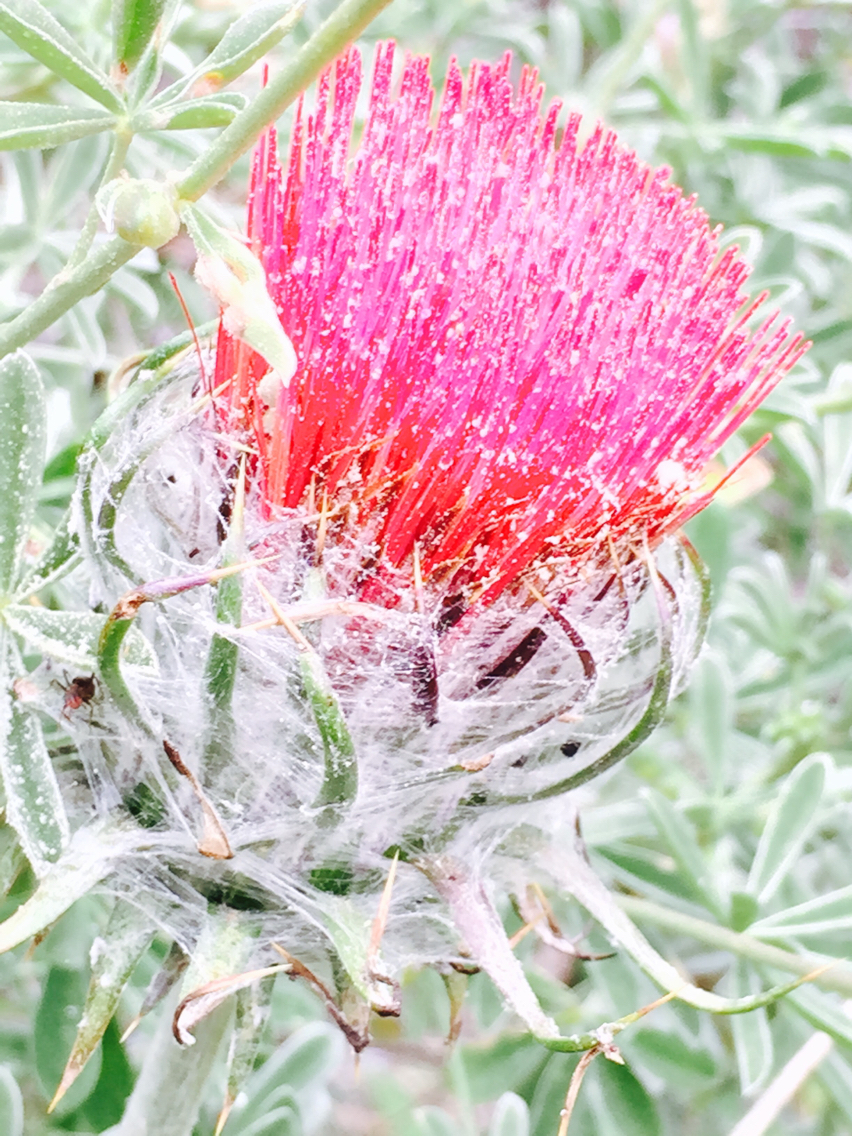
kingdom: Plantae
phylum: Tracheophyta
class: Magnoliopsida
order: Asterales
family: Asteraceae
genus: Cirsium
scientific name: Cirsium occidentale
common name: Western thistle
